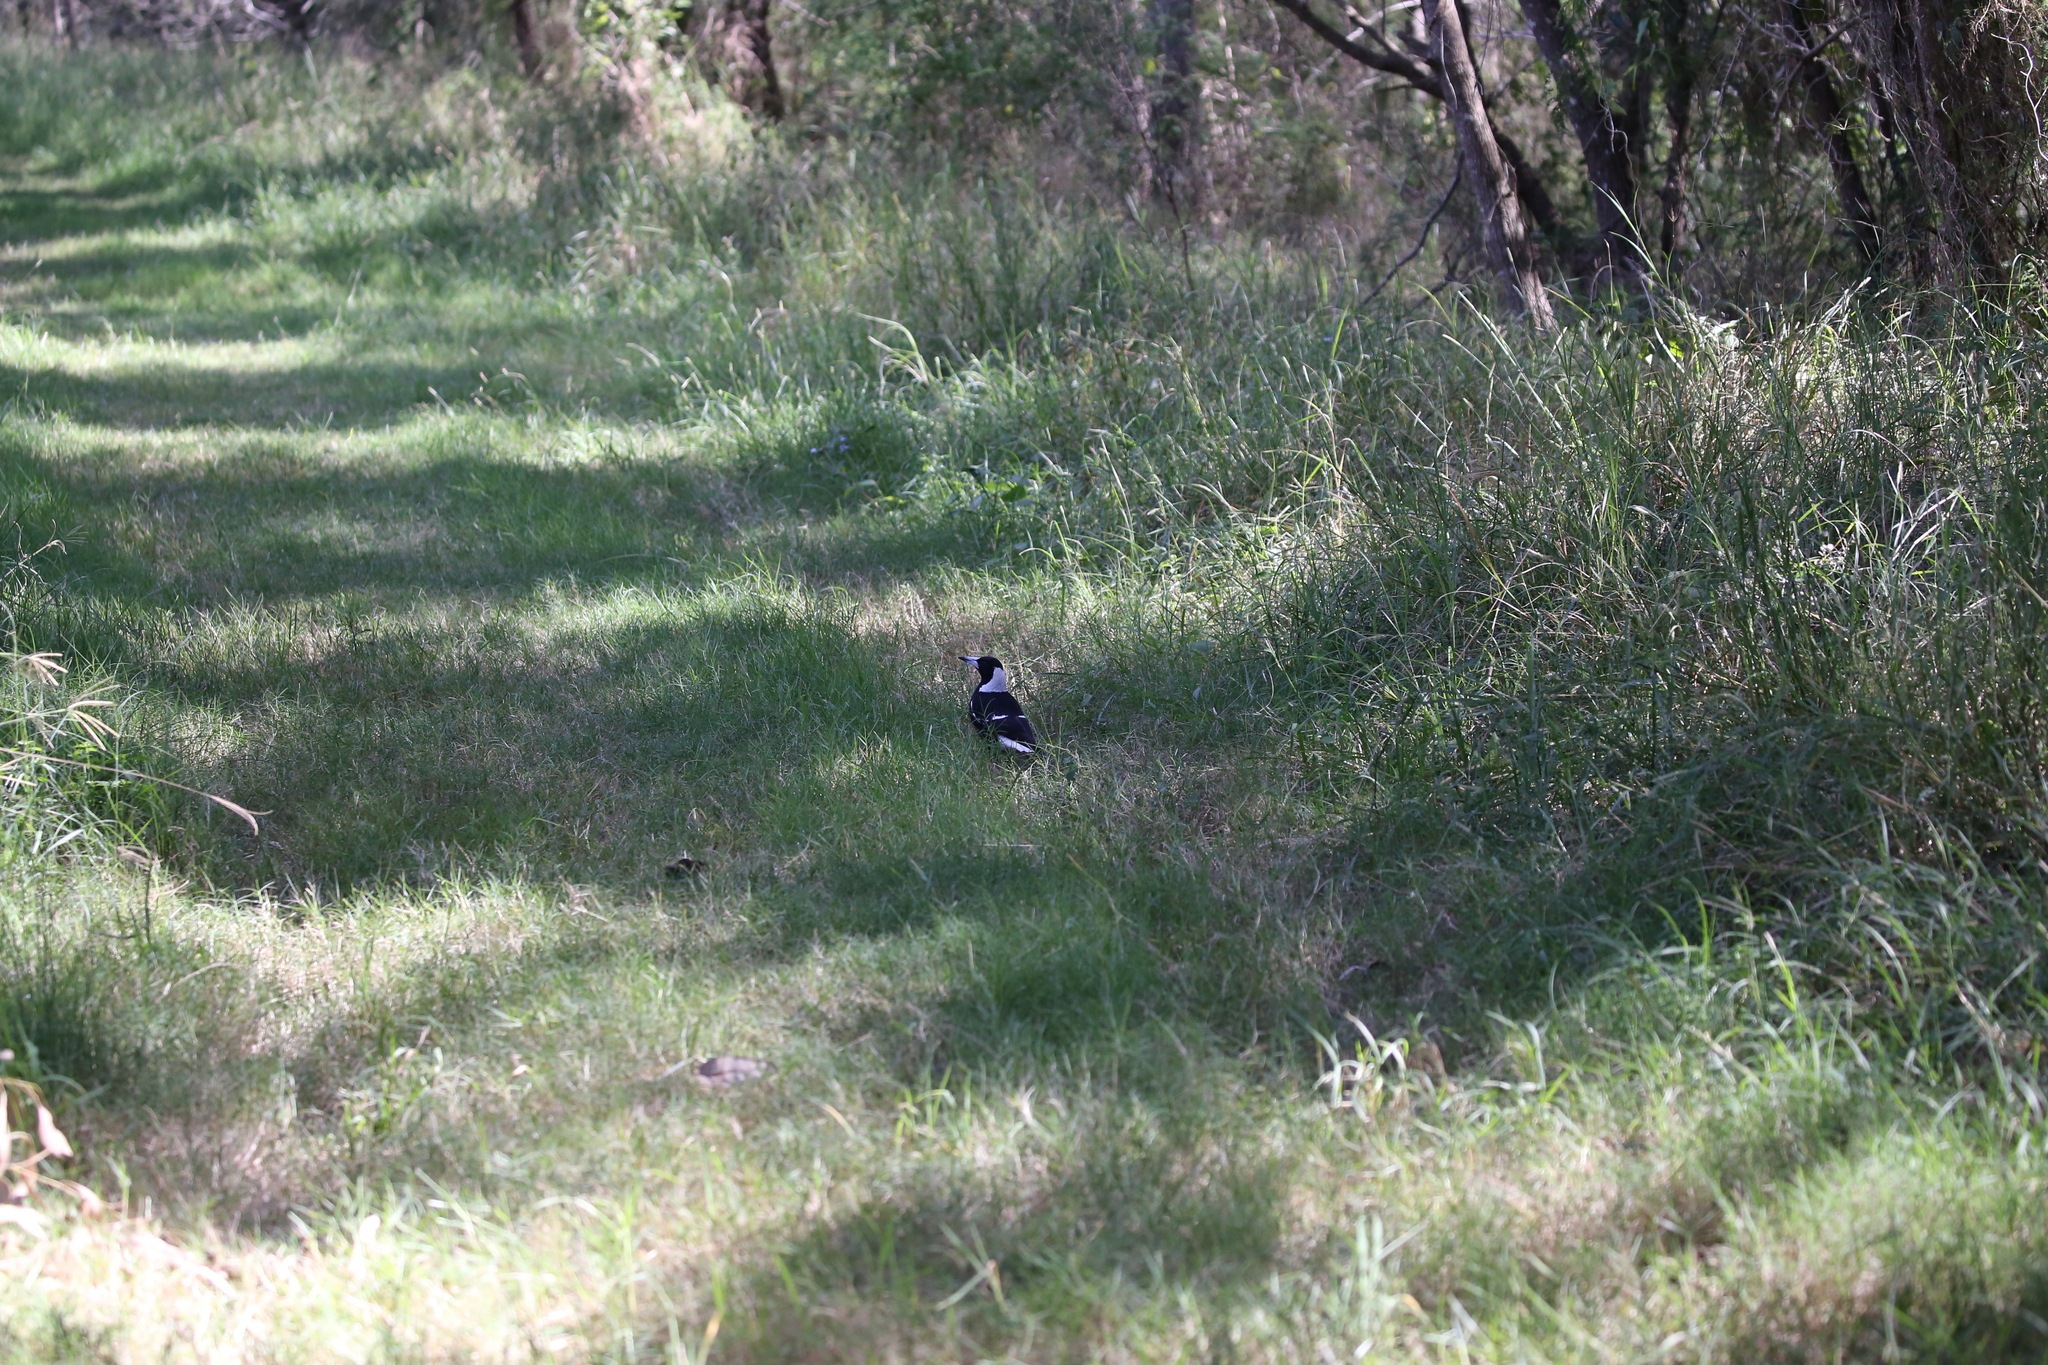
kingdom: Animalia
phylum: Chordata
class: Aves
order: Passeriformes
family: Cracticidae
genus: Gymnorhina
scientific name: Gymnorhina tibicen
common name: Australian magpie
